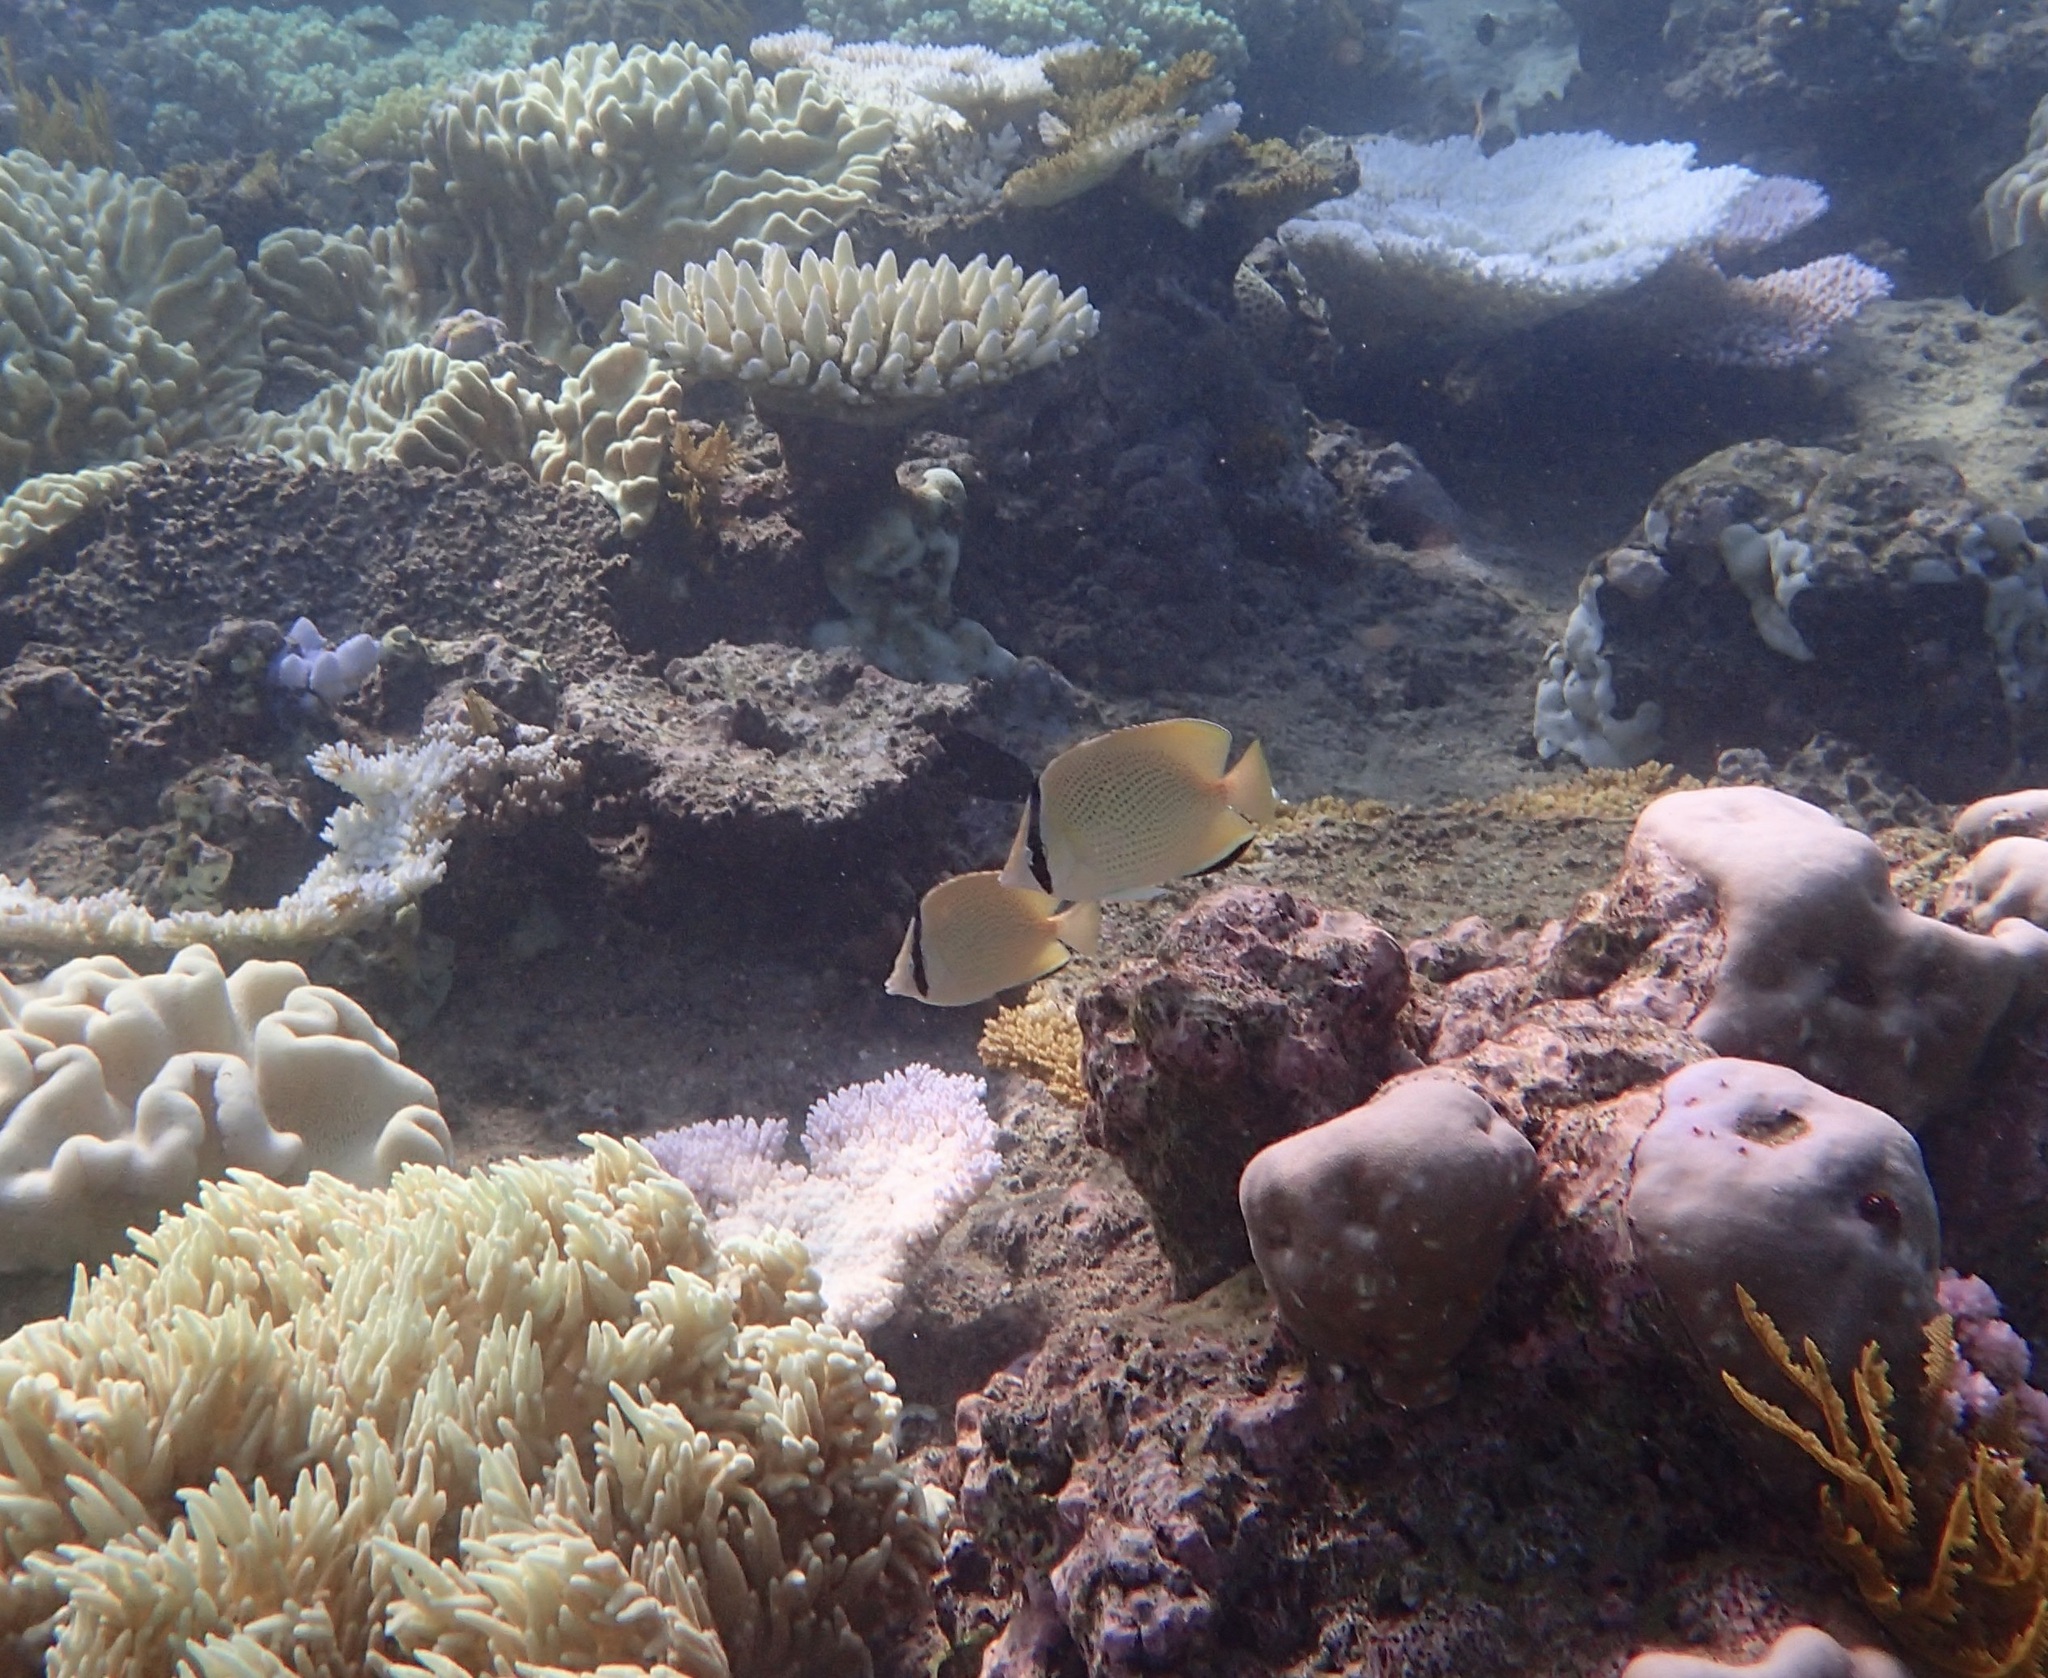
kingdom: Animalia
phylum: Chordata
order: Perciformes
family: Chaetodontidae
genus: Chaetodon
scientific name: Chaetodon citrinellus
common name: Speckled butterflyfish
